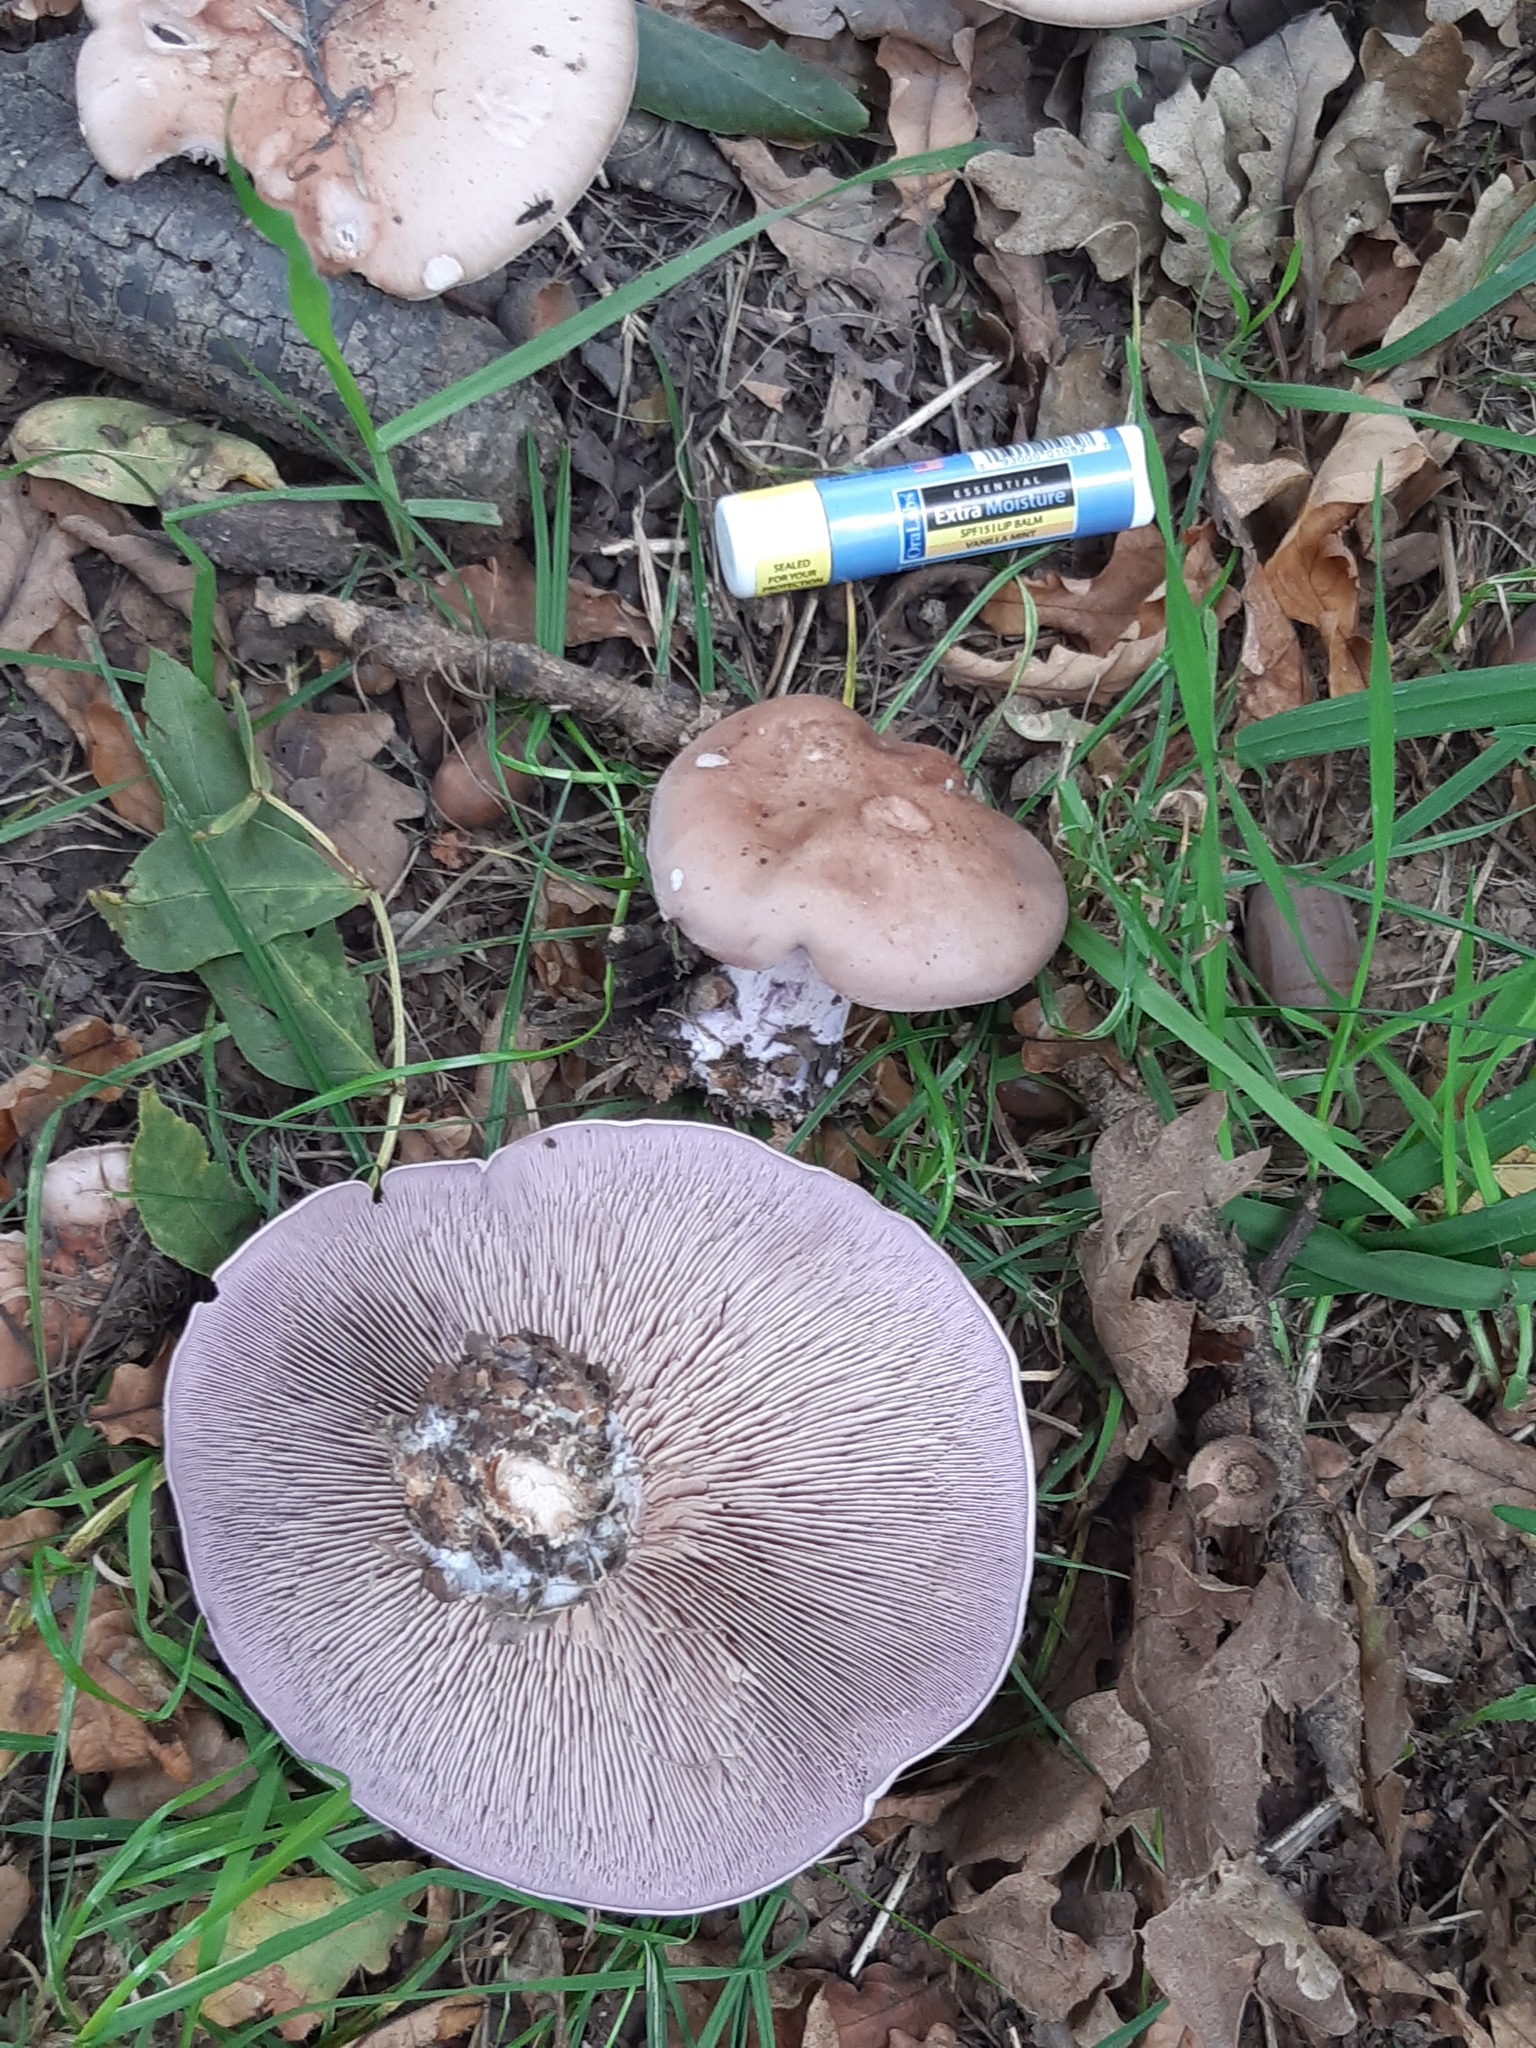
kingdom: Fungi
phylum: Basidiomycota
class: Agaricomycetes
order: Agaricales
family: Tricholomataceae
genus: Collybia
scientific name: Collybia
